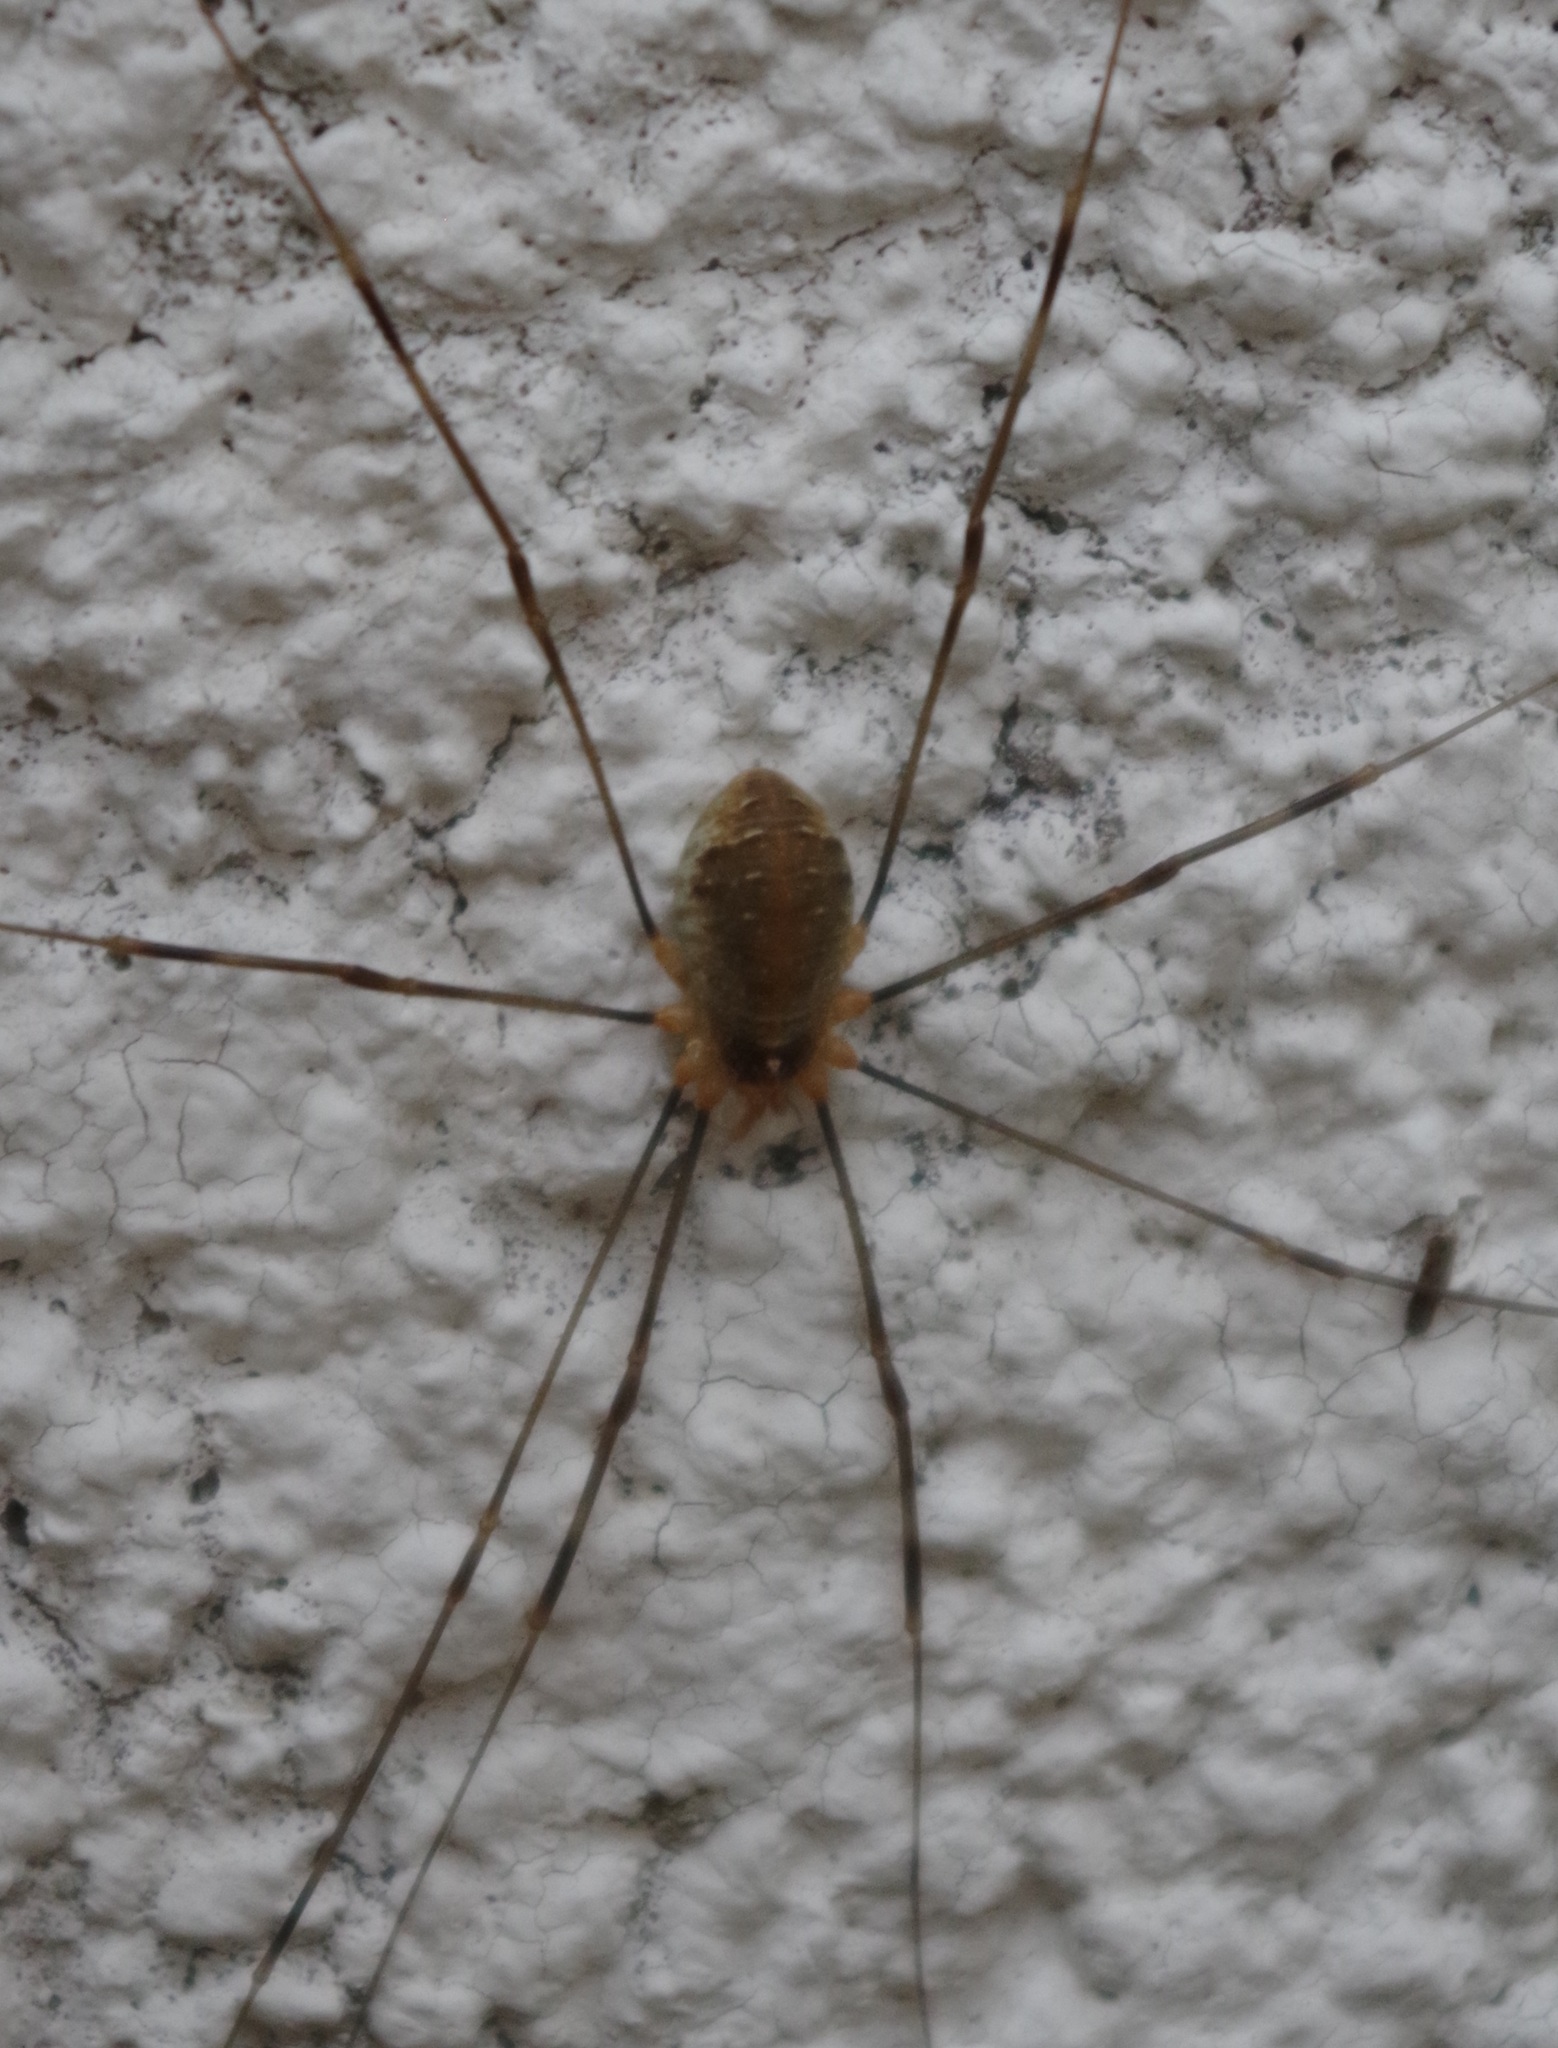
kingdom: Animalia
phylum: Arthropoda
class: Arachnida
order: Opiliones
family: Phalangiidae
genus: Opilio
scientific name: Opilio canestrinii
